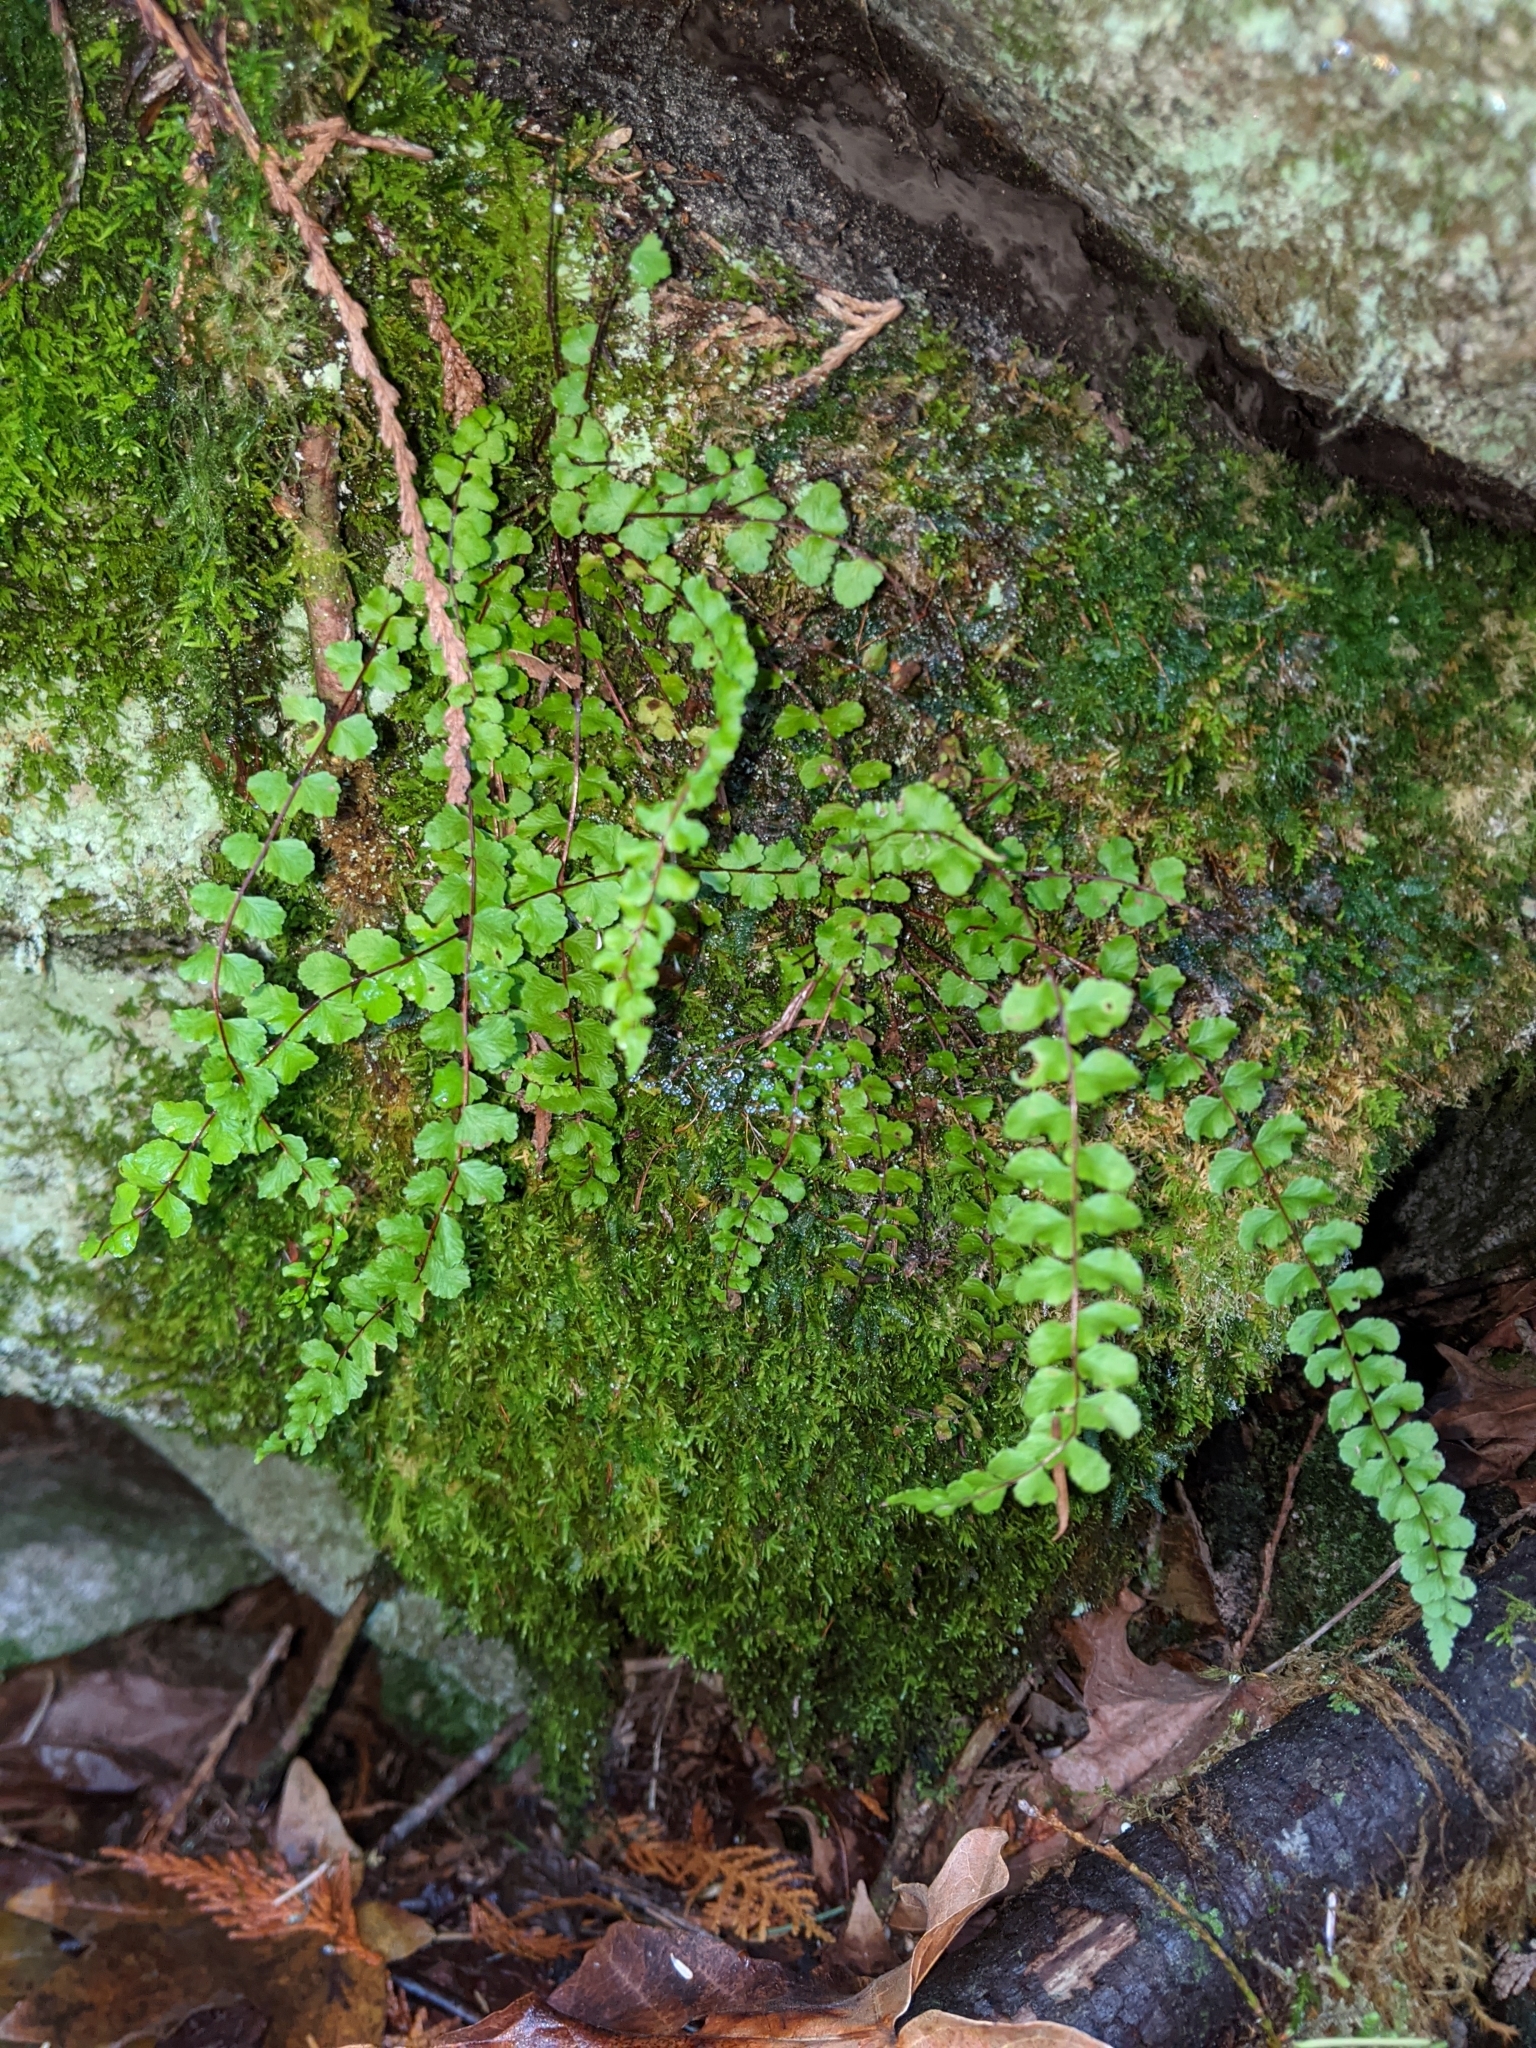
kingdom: Plantae
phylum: Tracheophyta
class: Polypodiopsida
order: Polypodiales
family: Aspleniaceae
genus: Asplenium
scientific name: Asplenium trichomanes
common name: Maidenhair spleenwort
